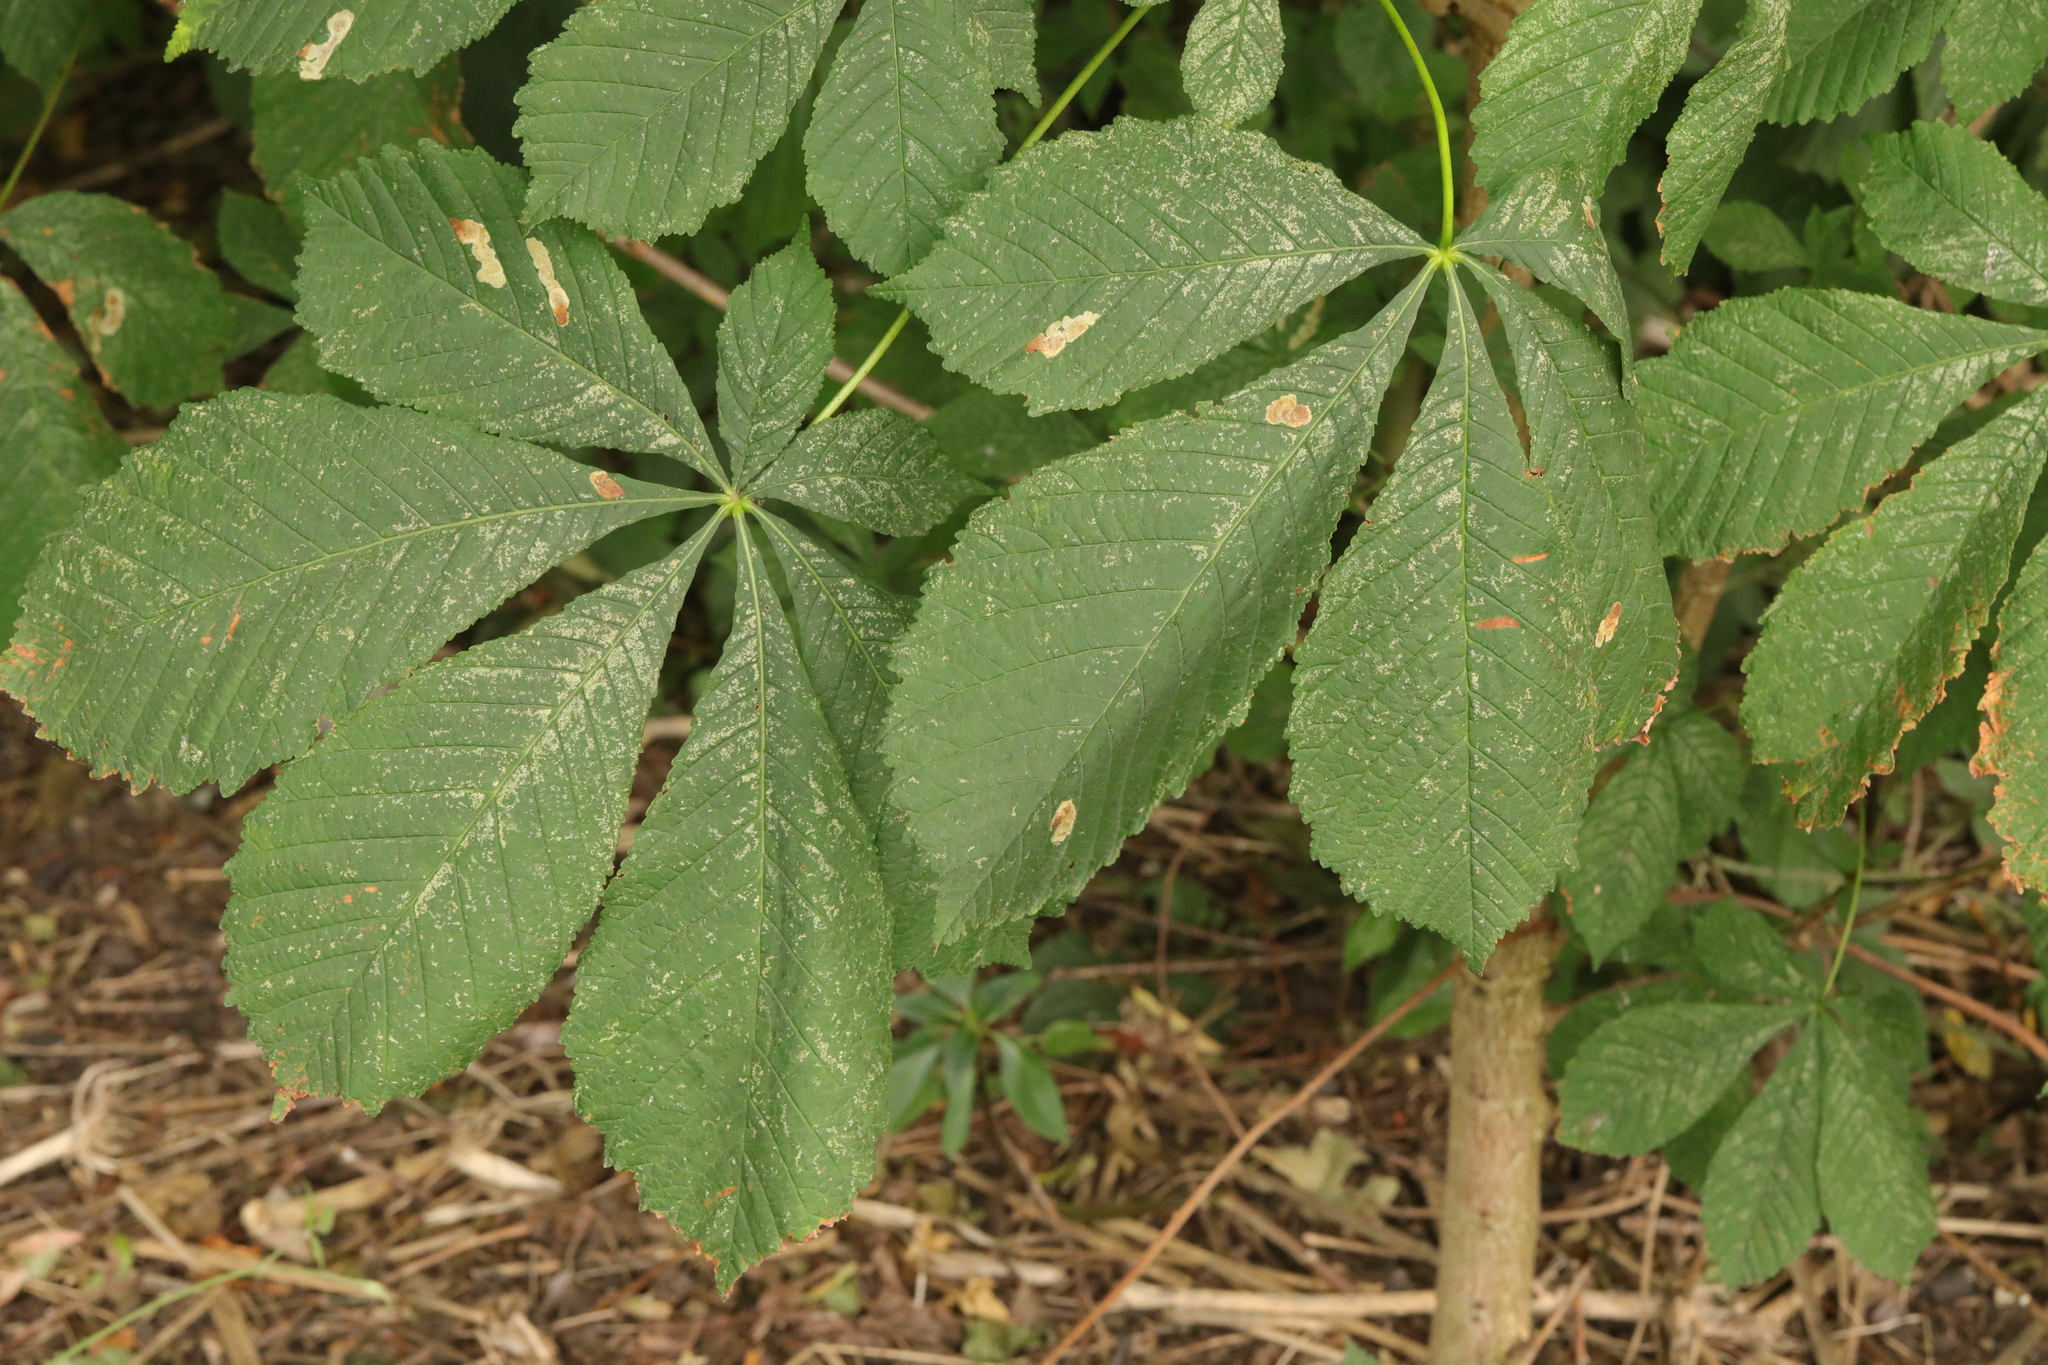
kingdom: Plantae
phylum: Tracheophyta
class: Magnoliopsida
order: Sapindales
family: Sapindaceae
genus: Aesculus
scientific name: Aesculus hippocastanum
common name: Horse-chestnut
